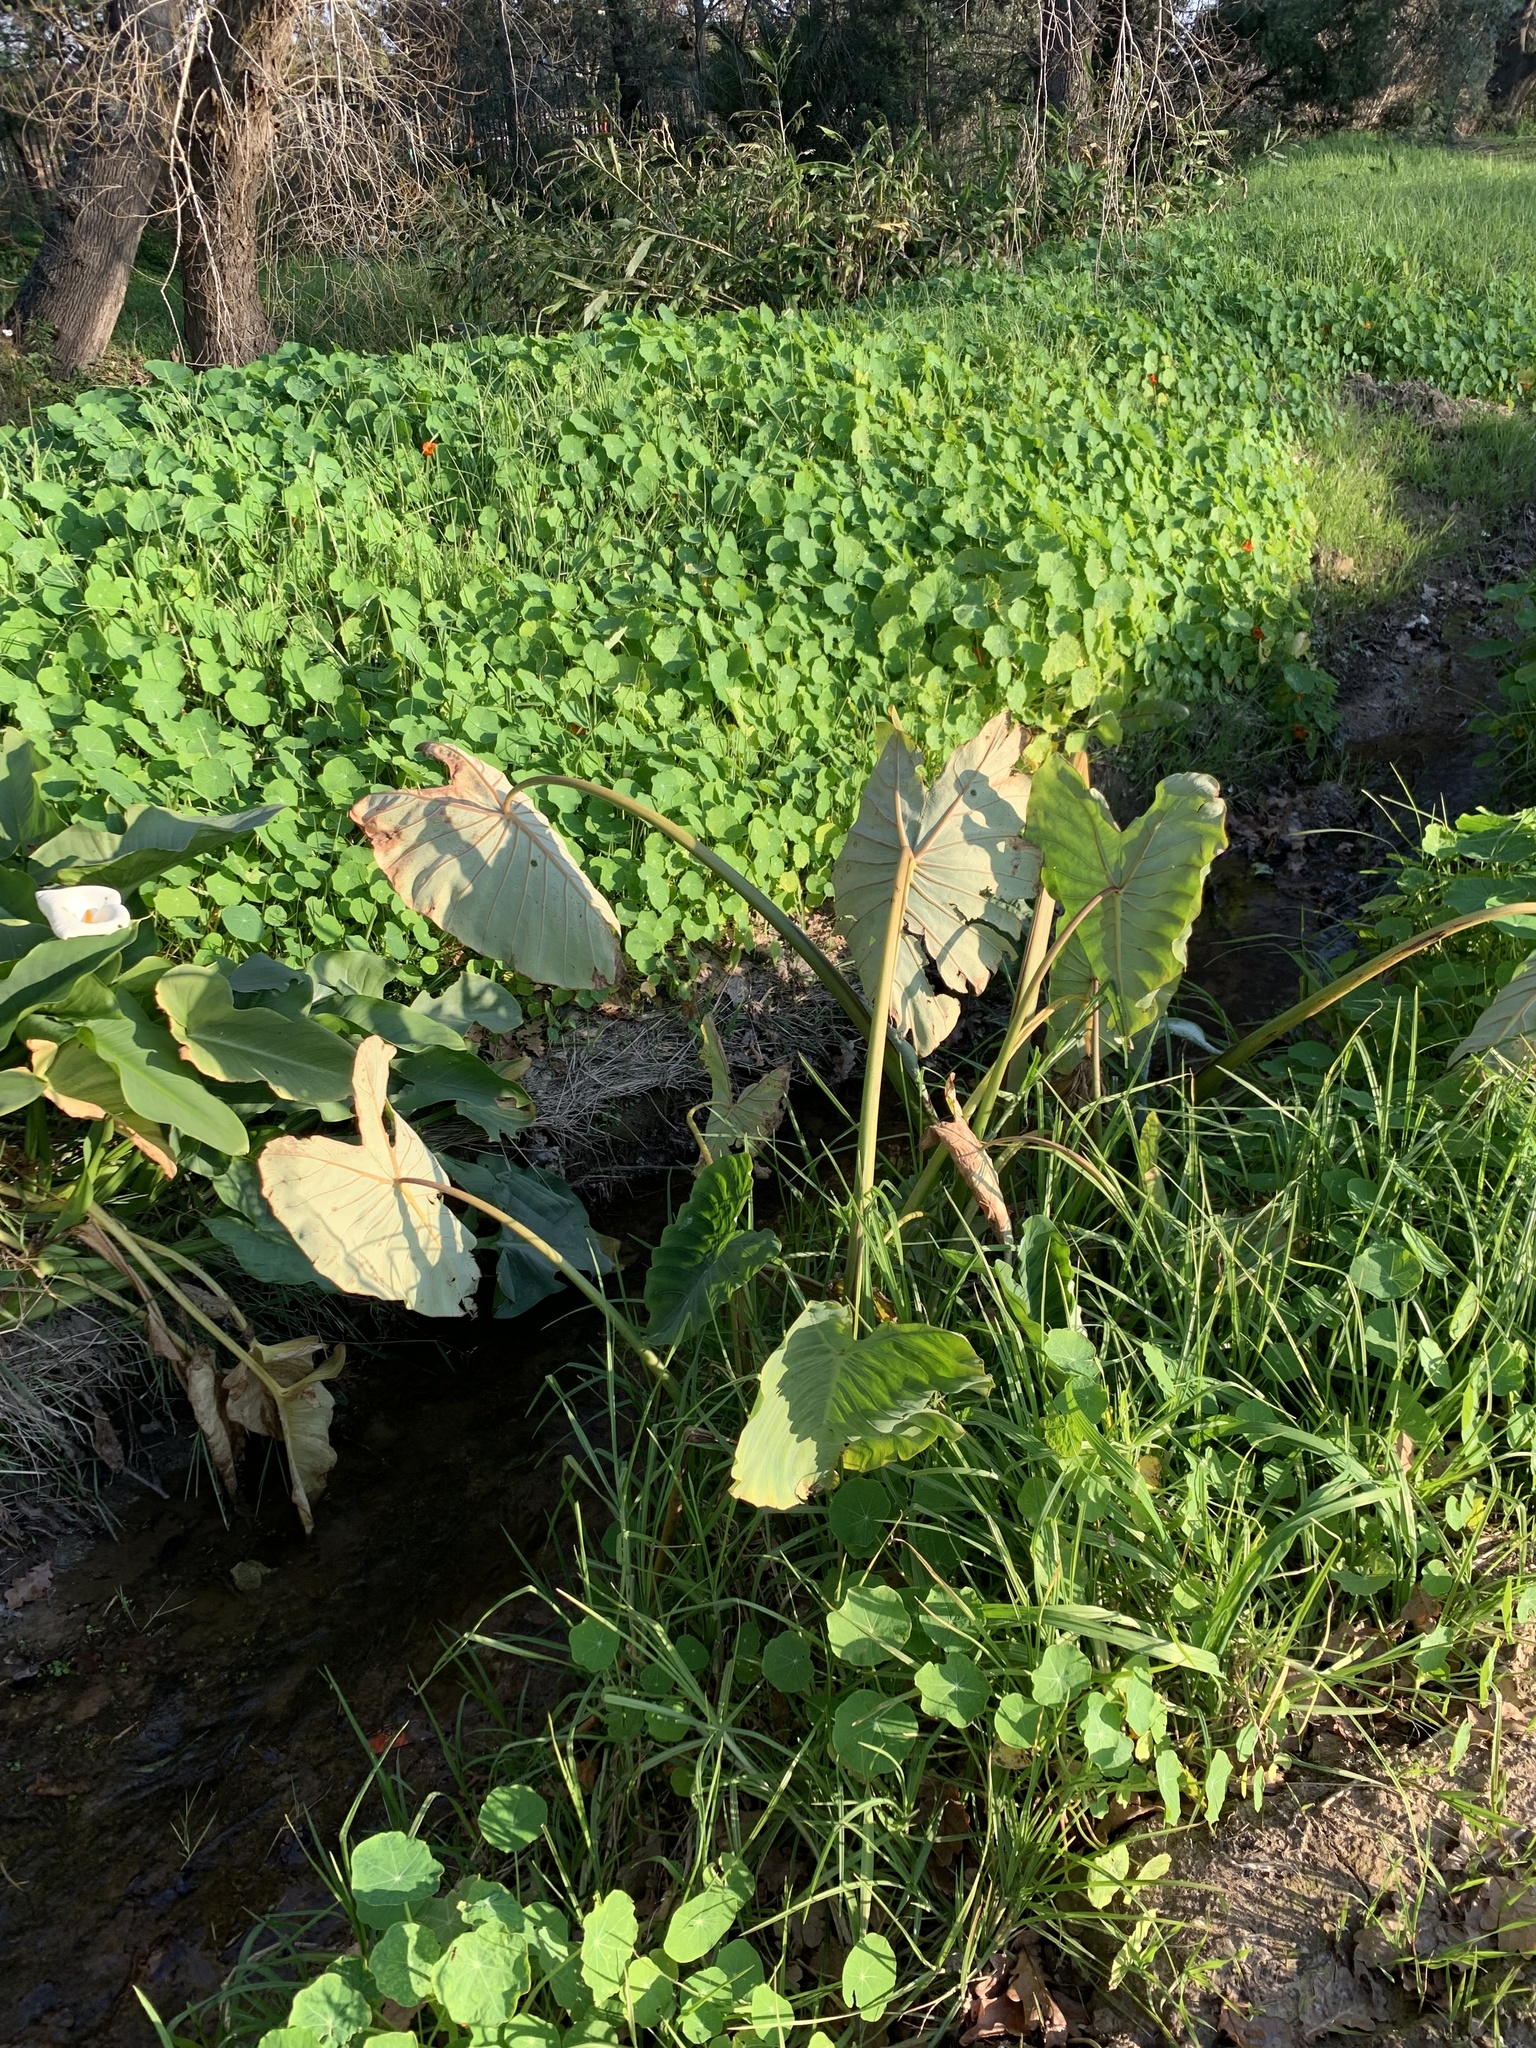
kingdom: Plantae
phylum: Tracheophyta
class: Liliopsida
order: Alismatales
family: Araceae
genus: Colocasia
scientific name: Colocasia esculenta
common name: Taro
